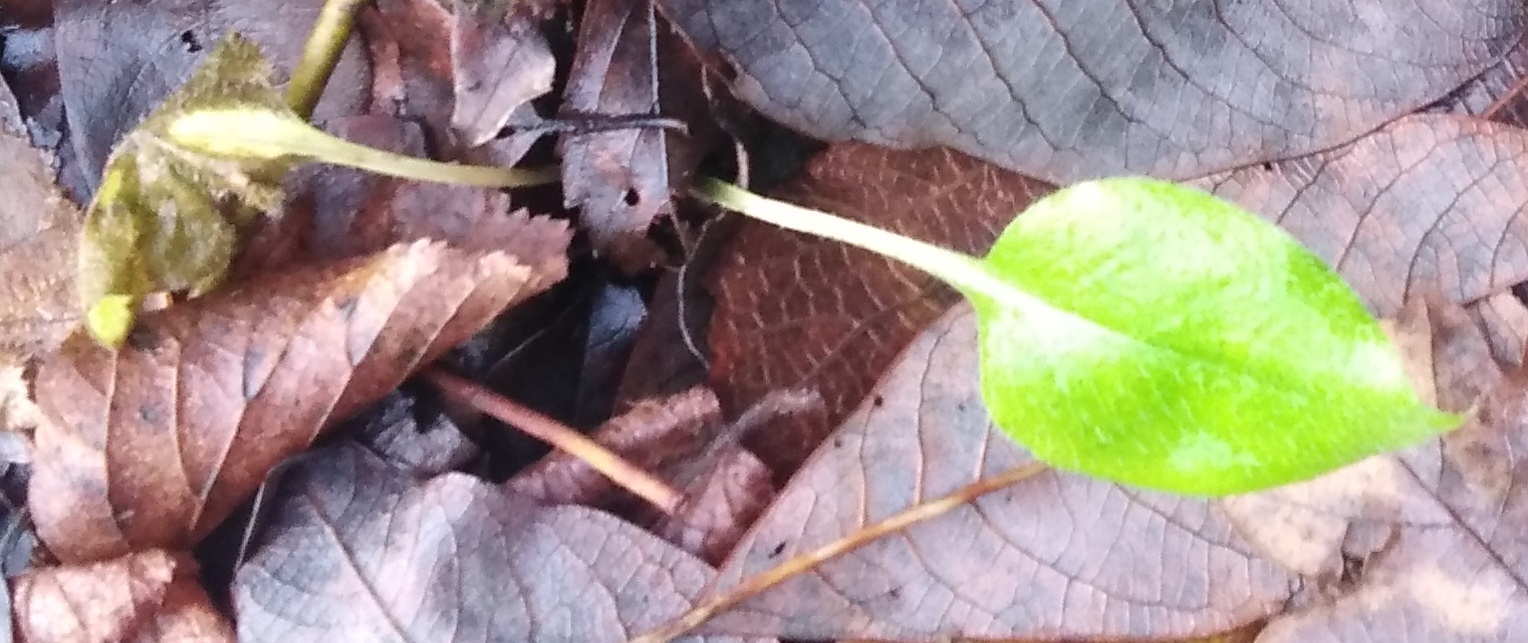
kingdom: Plantae
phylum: Tracheophyta
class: Magnoliopsida
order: Boraginales
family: Boraginaceae
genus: Pulmonaria
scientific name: Pulmonaria obscura
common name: Suffolk lungwort
